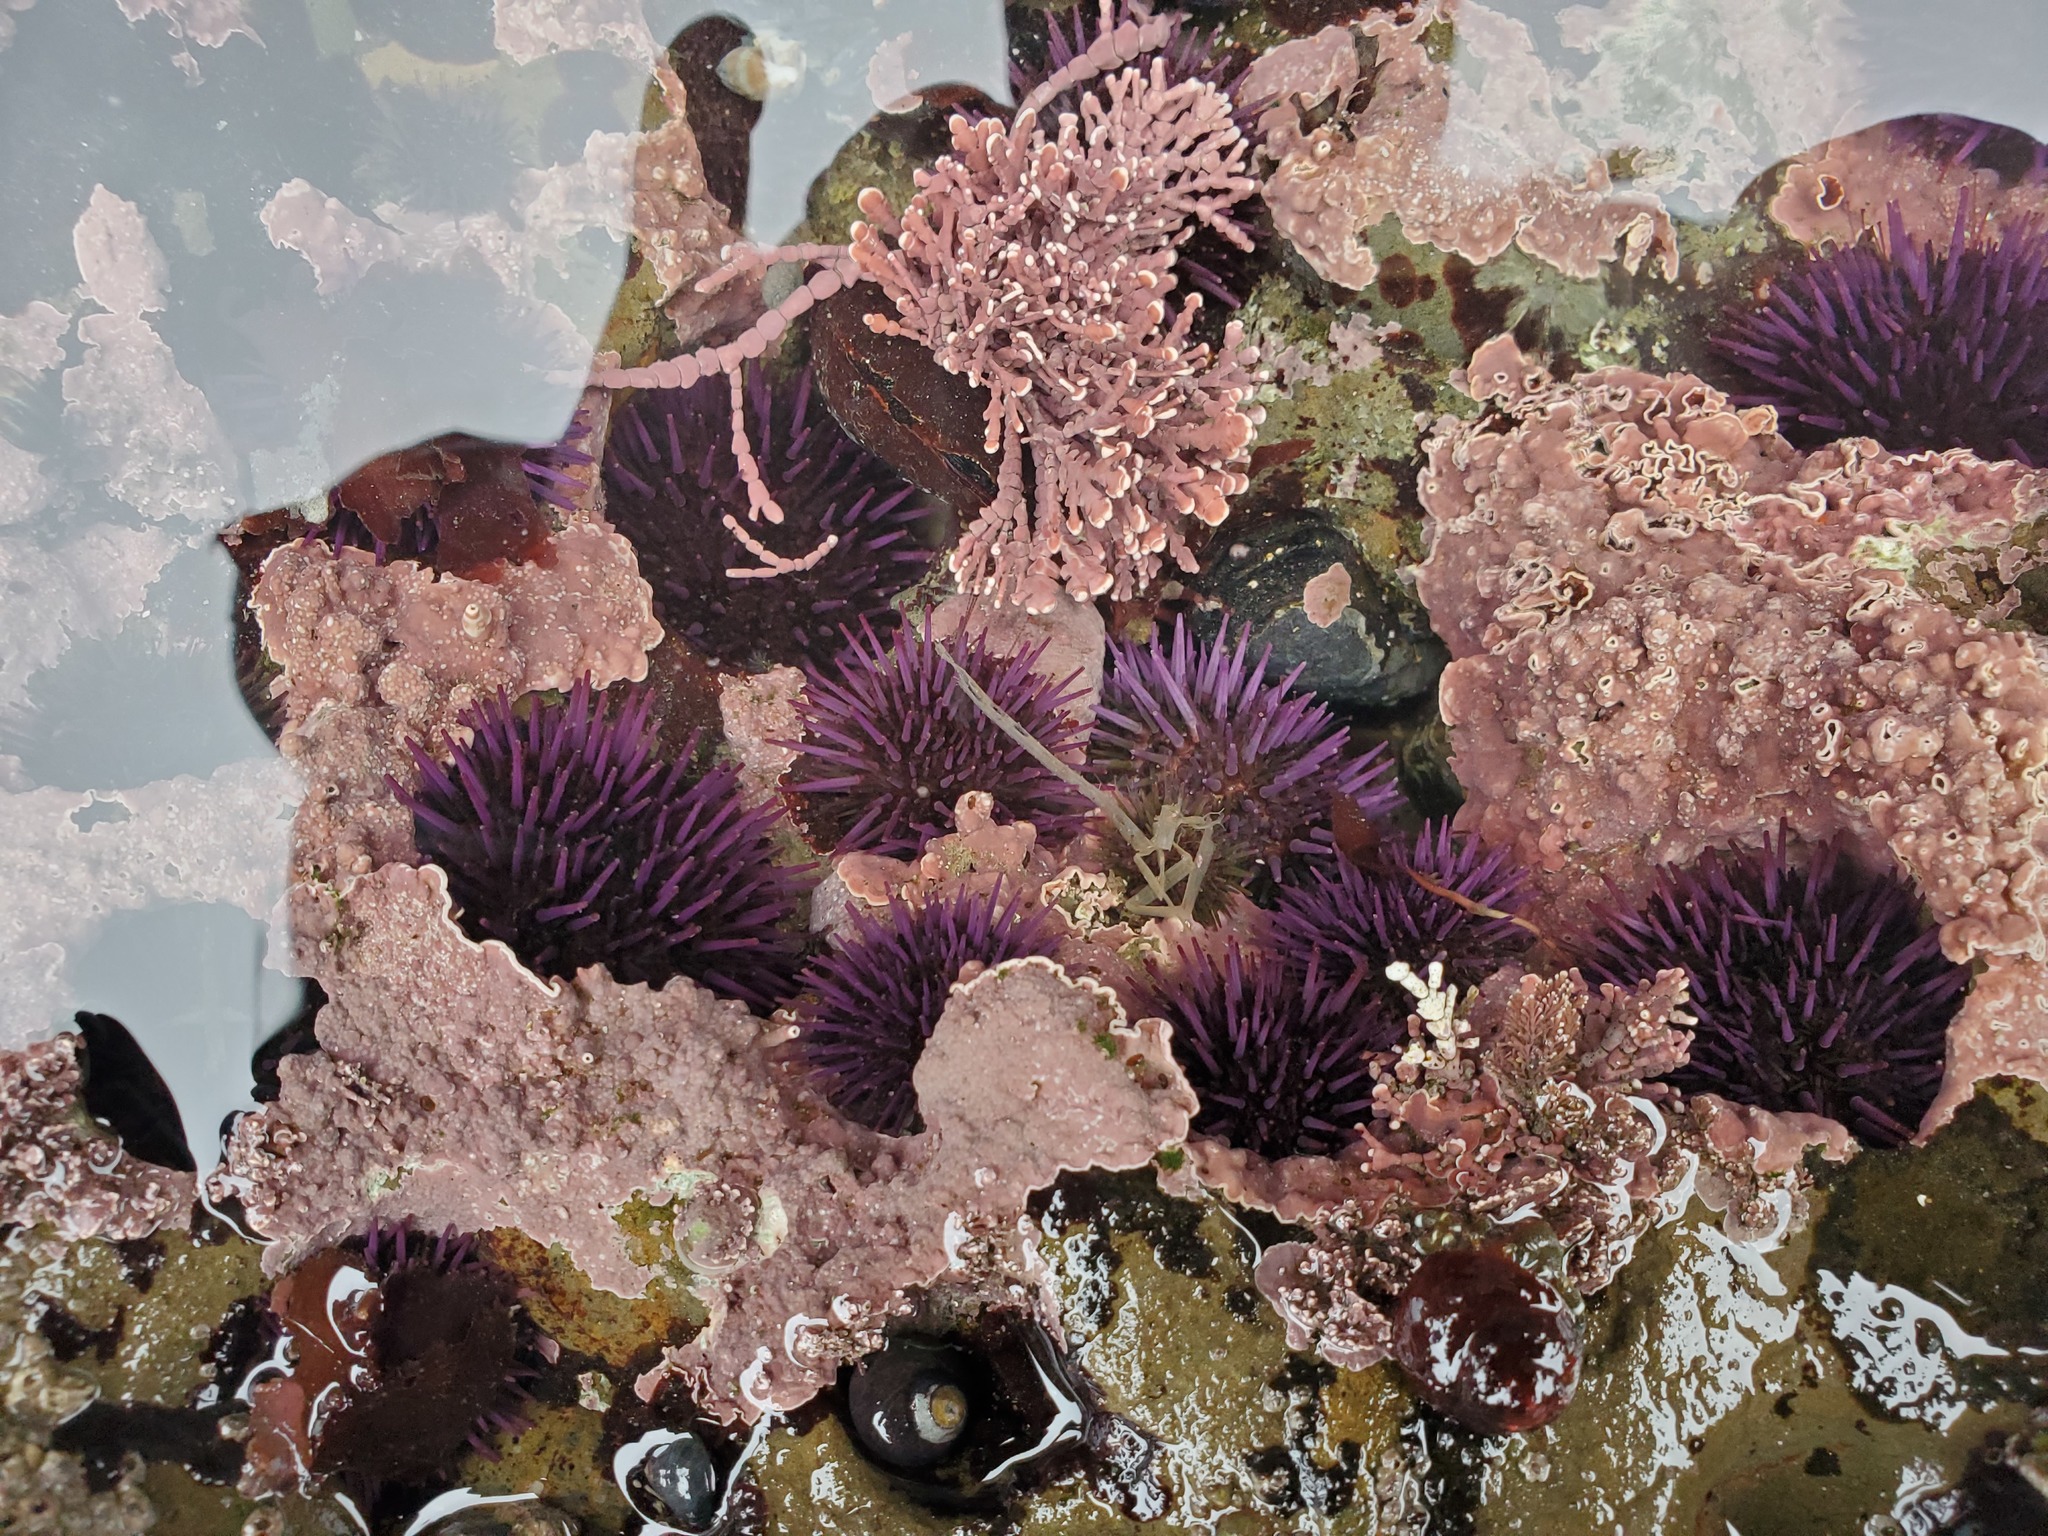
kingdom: Animalia
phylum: Echinodermata
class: Echinoidea
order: Camarodonta
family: Strongylocentrotidae
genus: Strongylocentrotus
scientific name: Strongylocentrotus purpuratus
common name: Purple sea urchin
